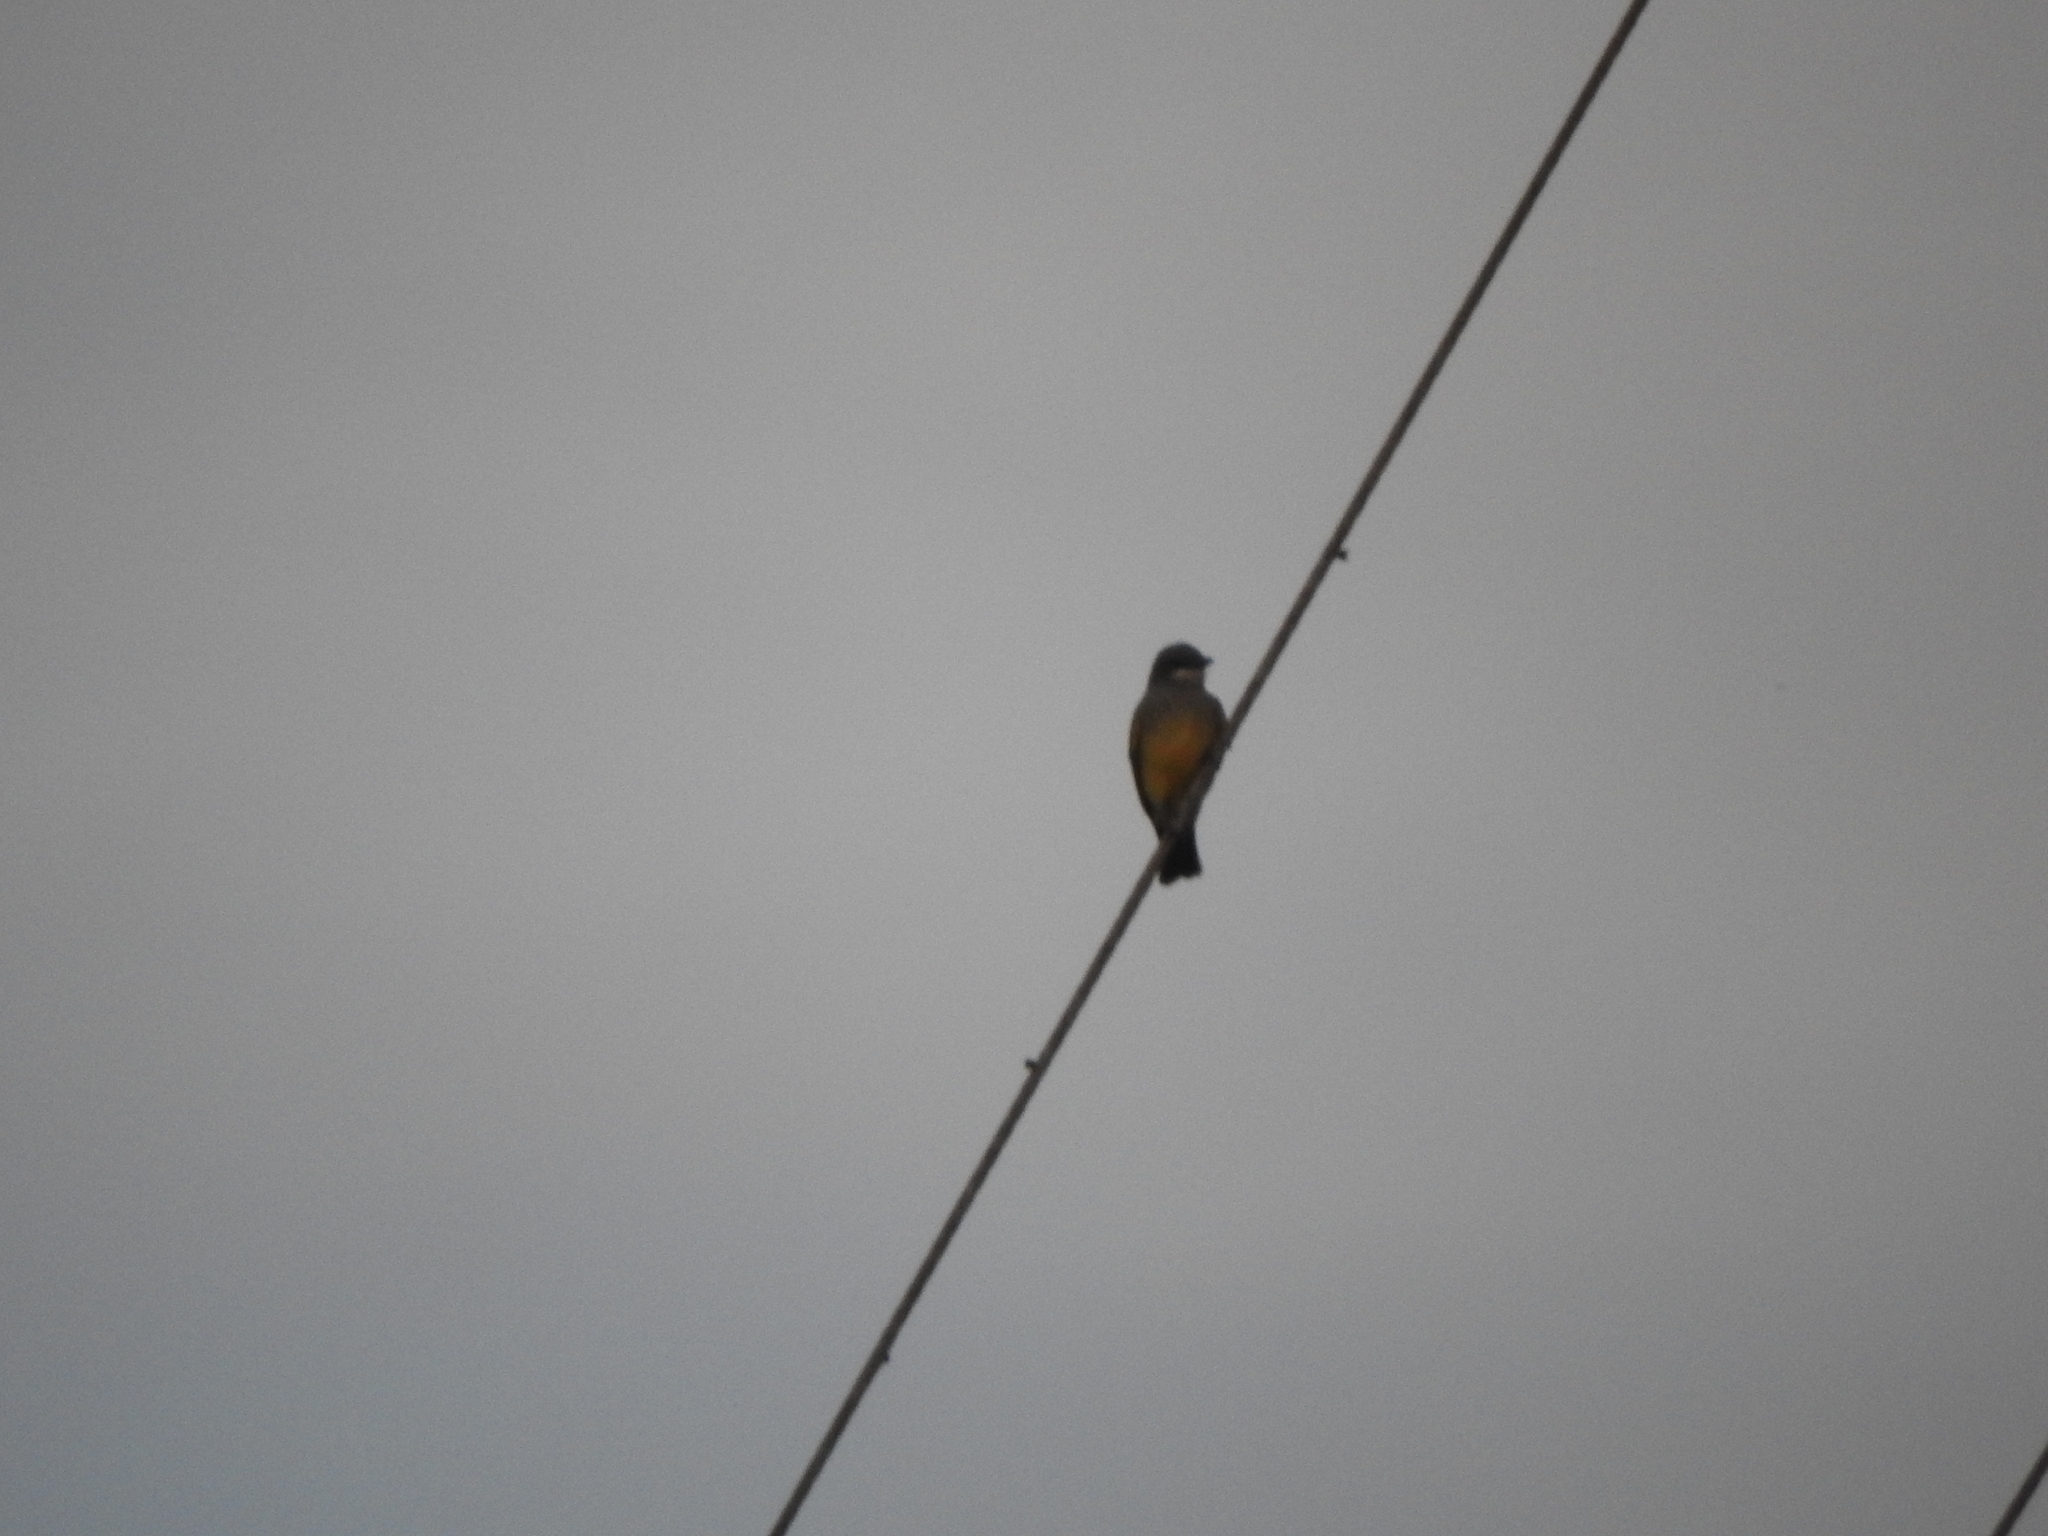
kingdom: Animalia
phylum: Chordata
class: Aves
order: Passeriformes
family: Tyrannidae
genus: Tyrannus
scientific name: Tyrannus vociferans
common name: Cassin's kingbird
